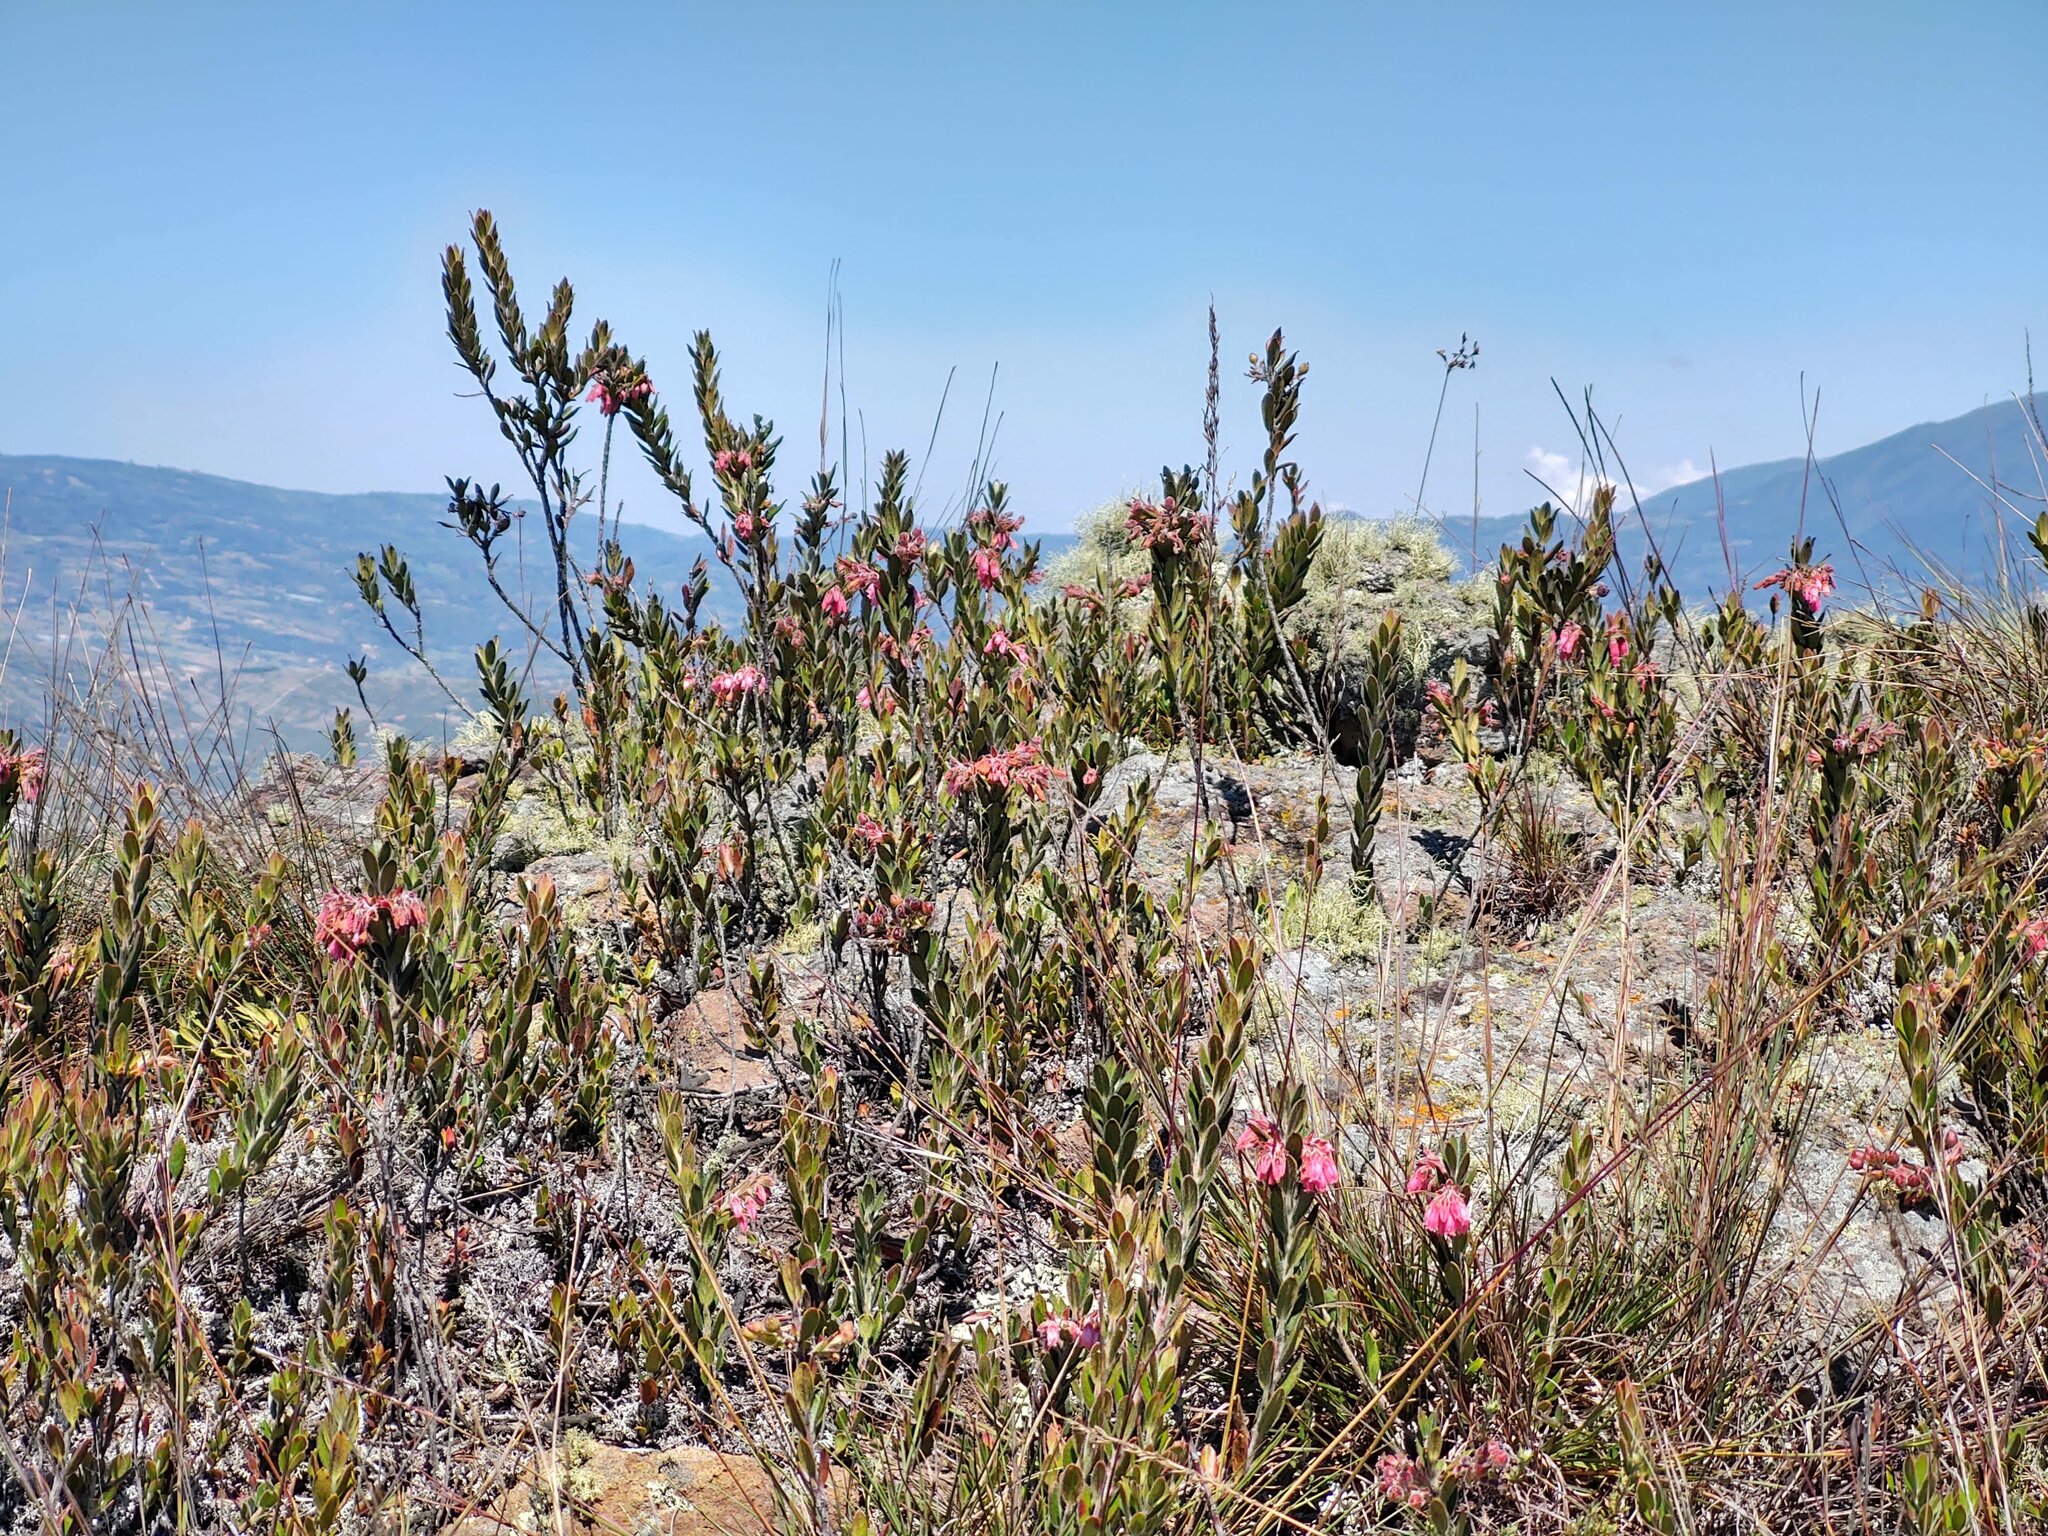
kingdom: Plantae
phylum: Tracheophyta
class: Magnoliopsida
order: Ericales
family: Ericaceae
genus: Gaylussacia
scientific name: Gaylussacia buxifolia
